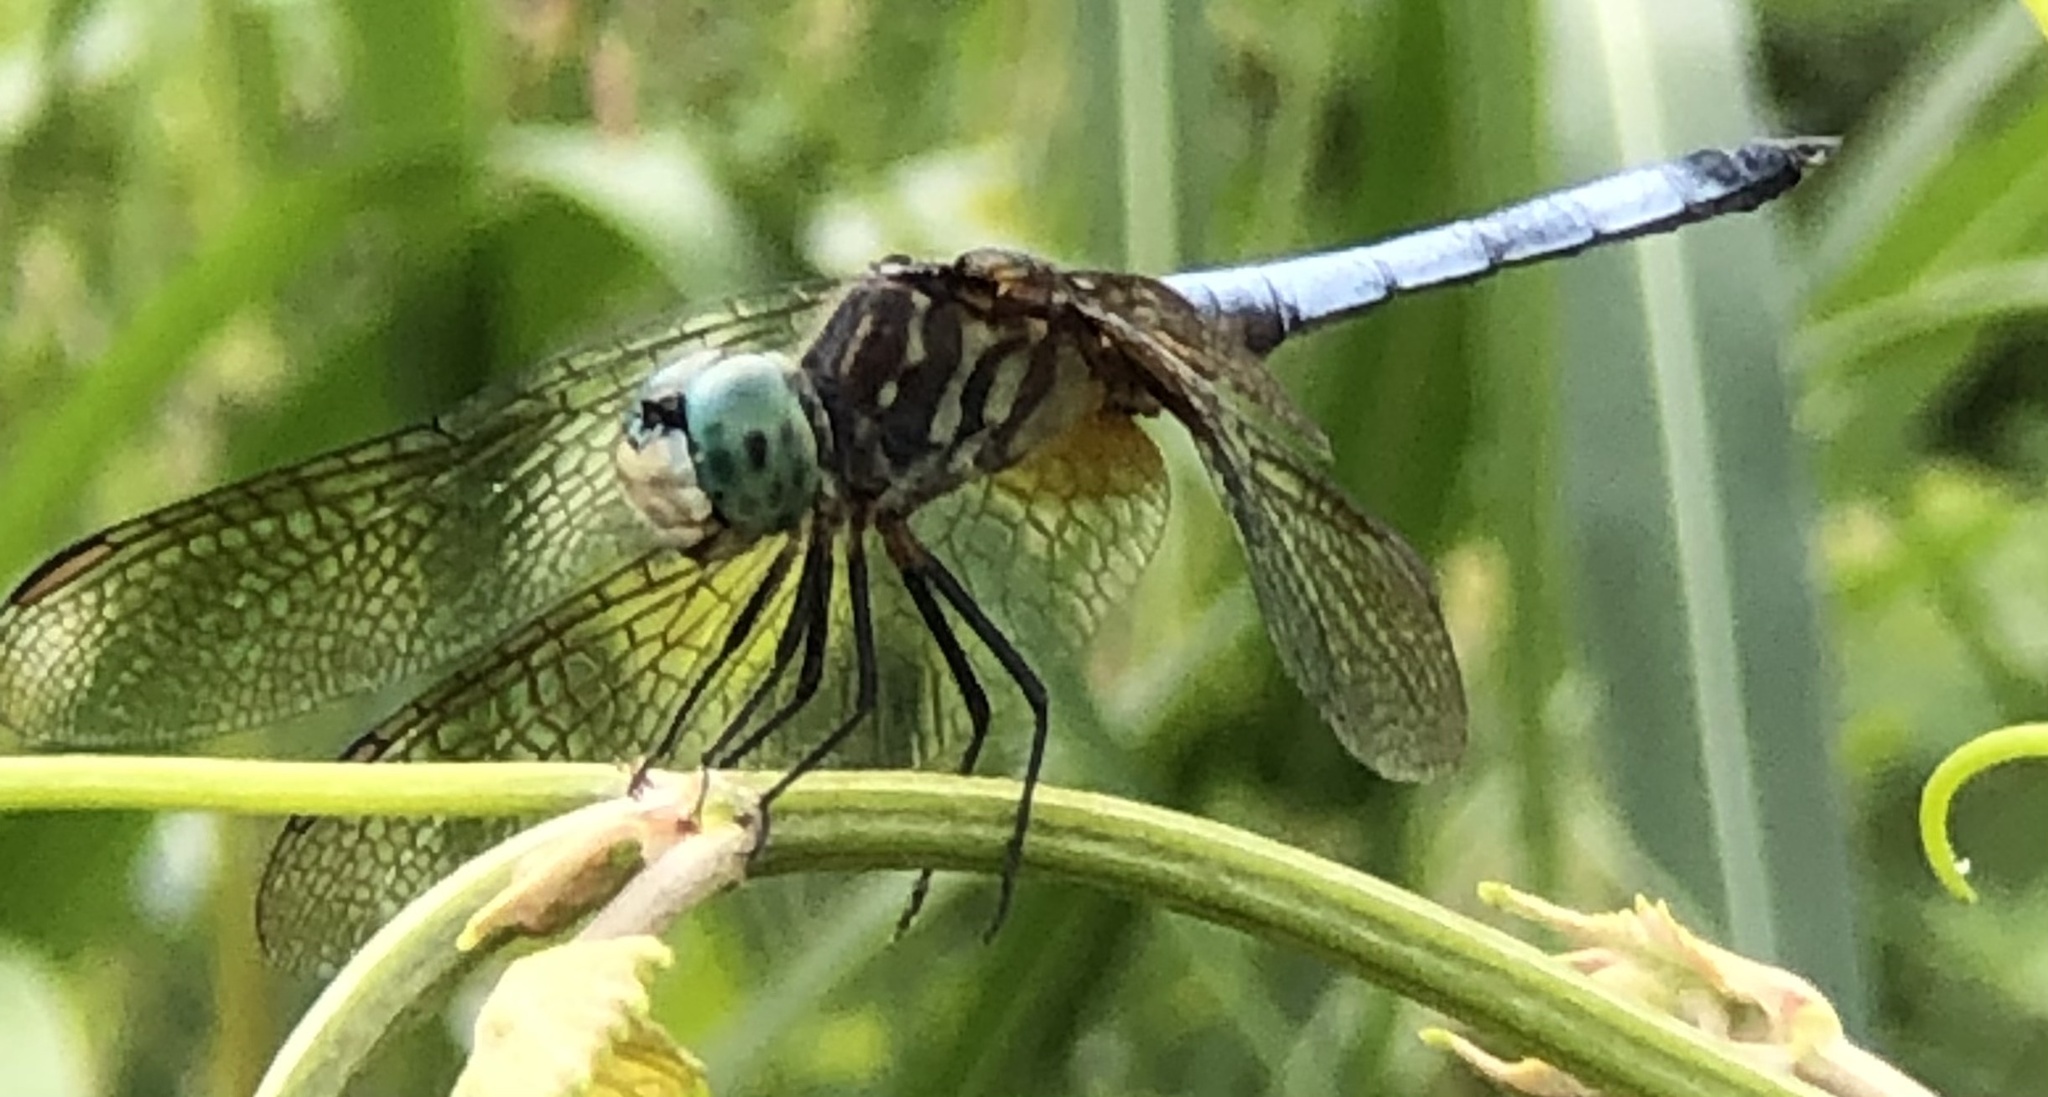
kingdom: Animalia
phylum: Arthropoda
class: Insecta
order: Odonata
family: Libellulidae
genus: Pachydiplax
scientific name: Pachydiplax longipennis
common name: Blue dasher
